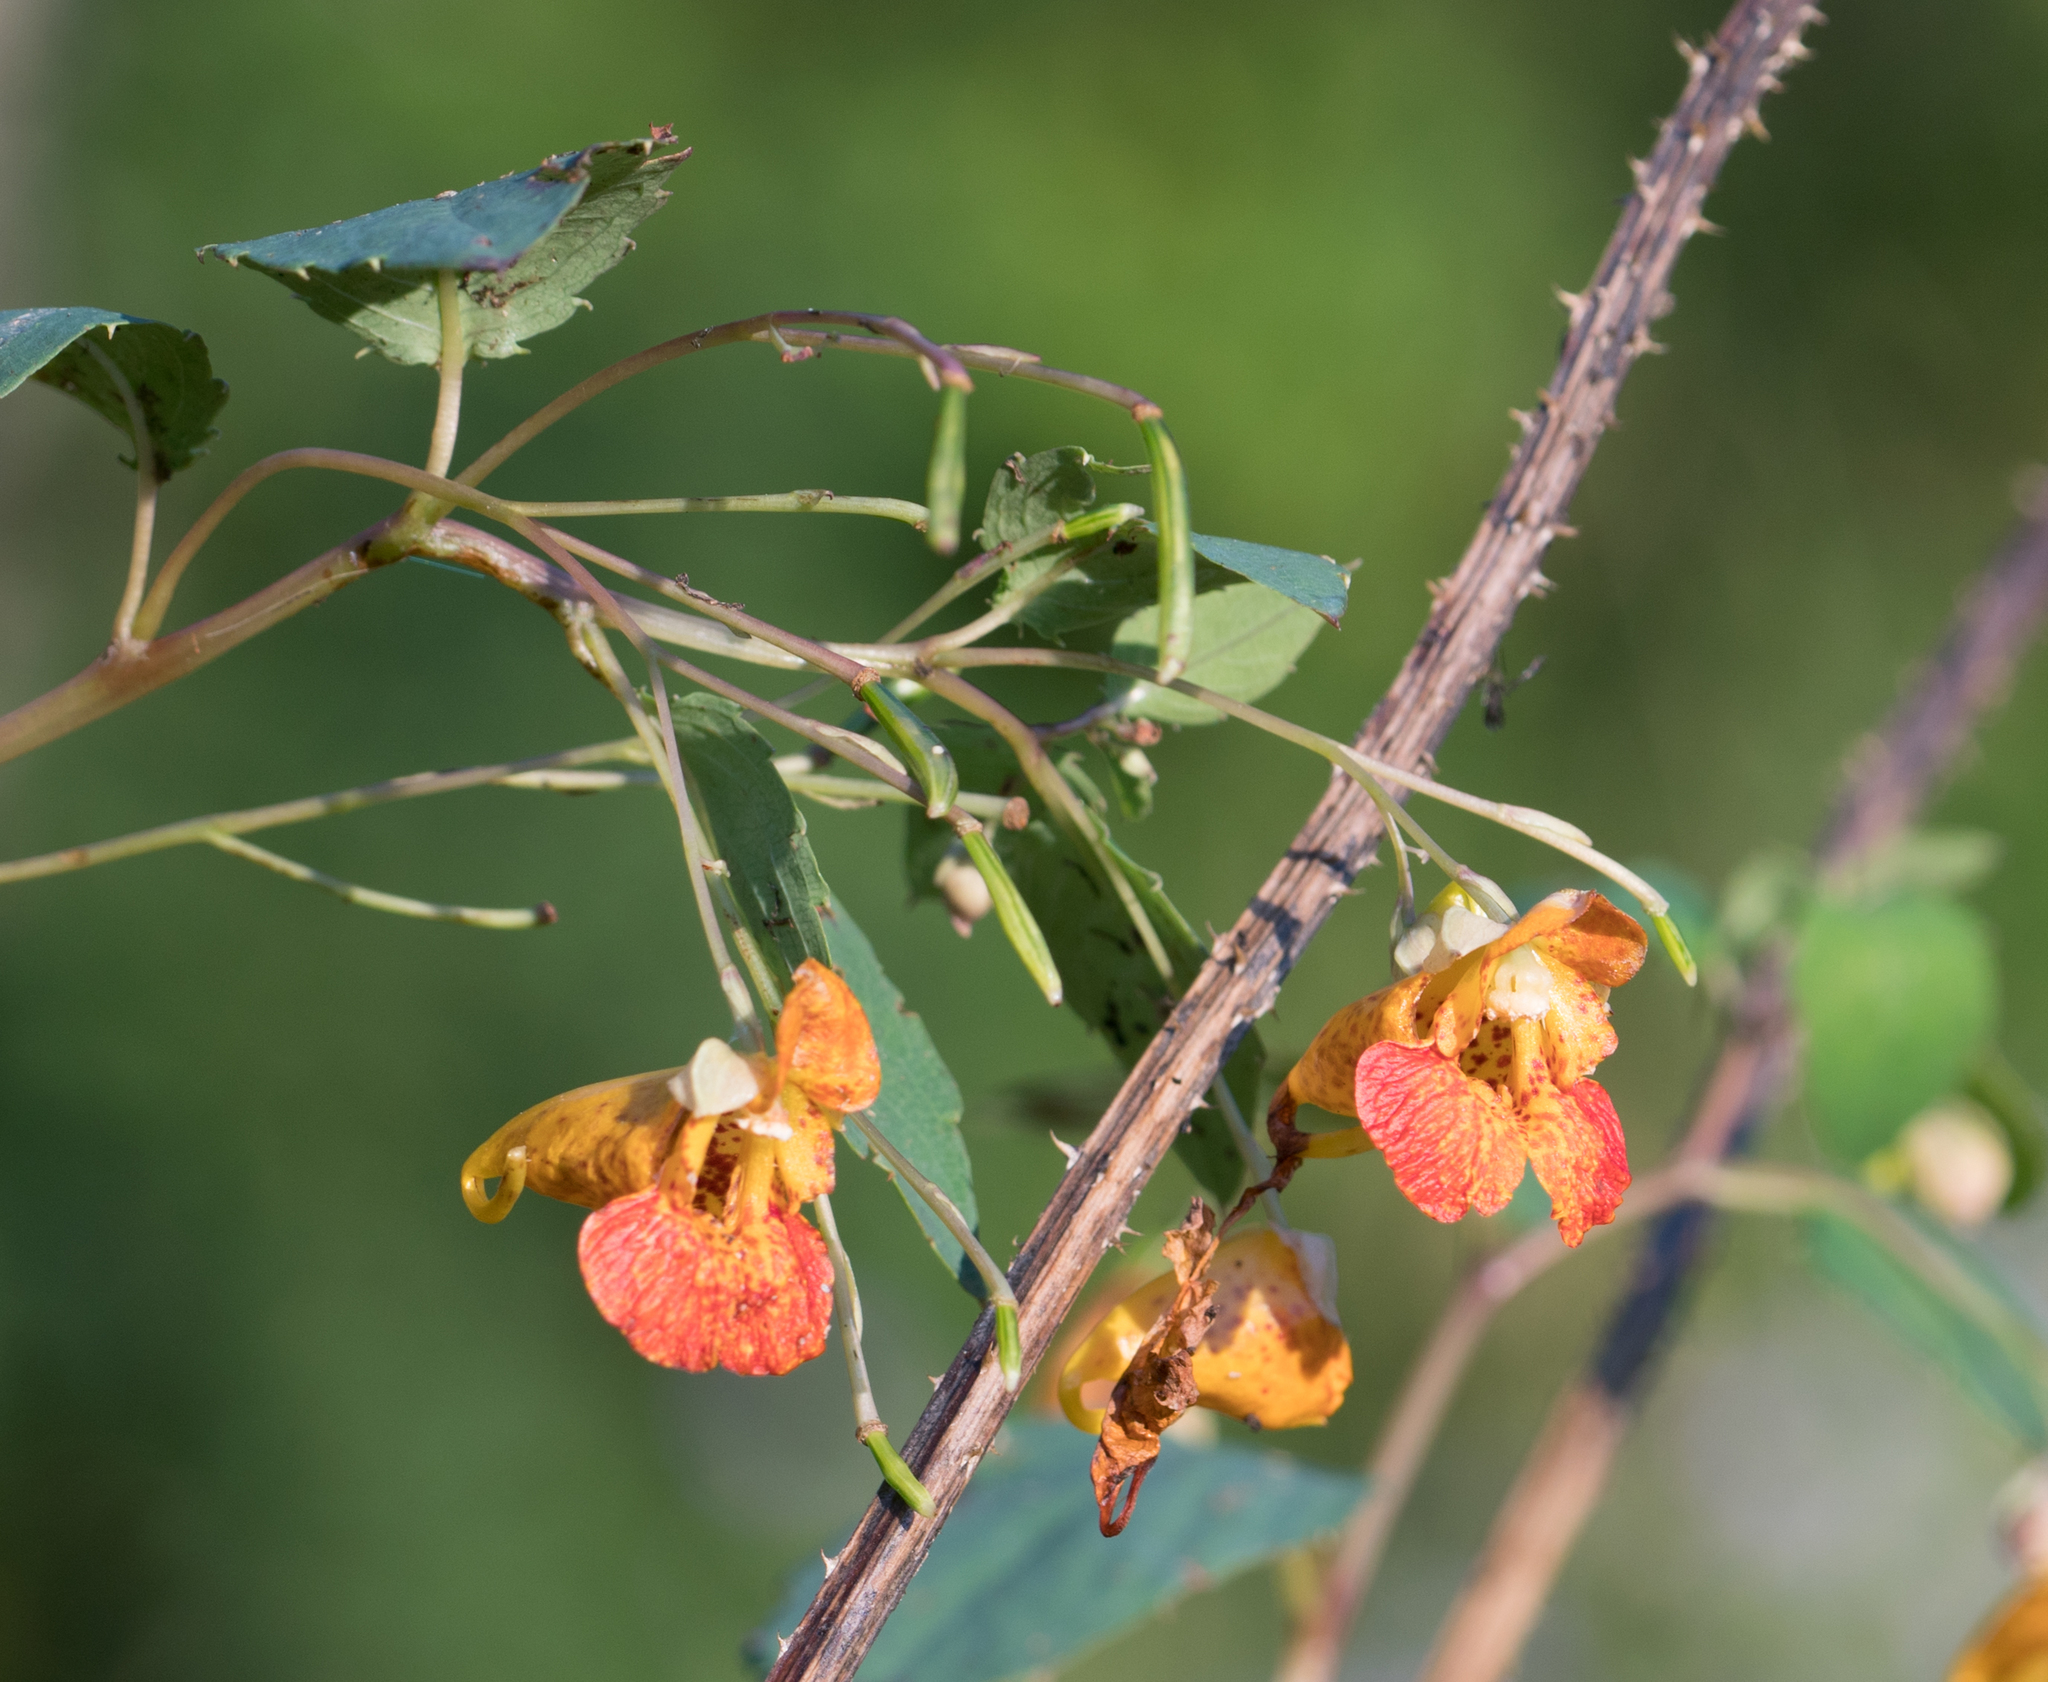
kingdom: Plantae
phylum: Tracheophyta
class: Magnoliopsida
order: Ericales
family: Balsaminaceae
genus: Impatiens
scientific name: Impatiens capensis
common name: Orange balsam
